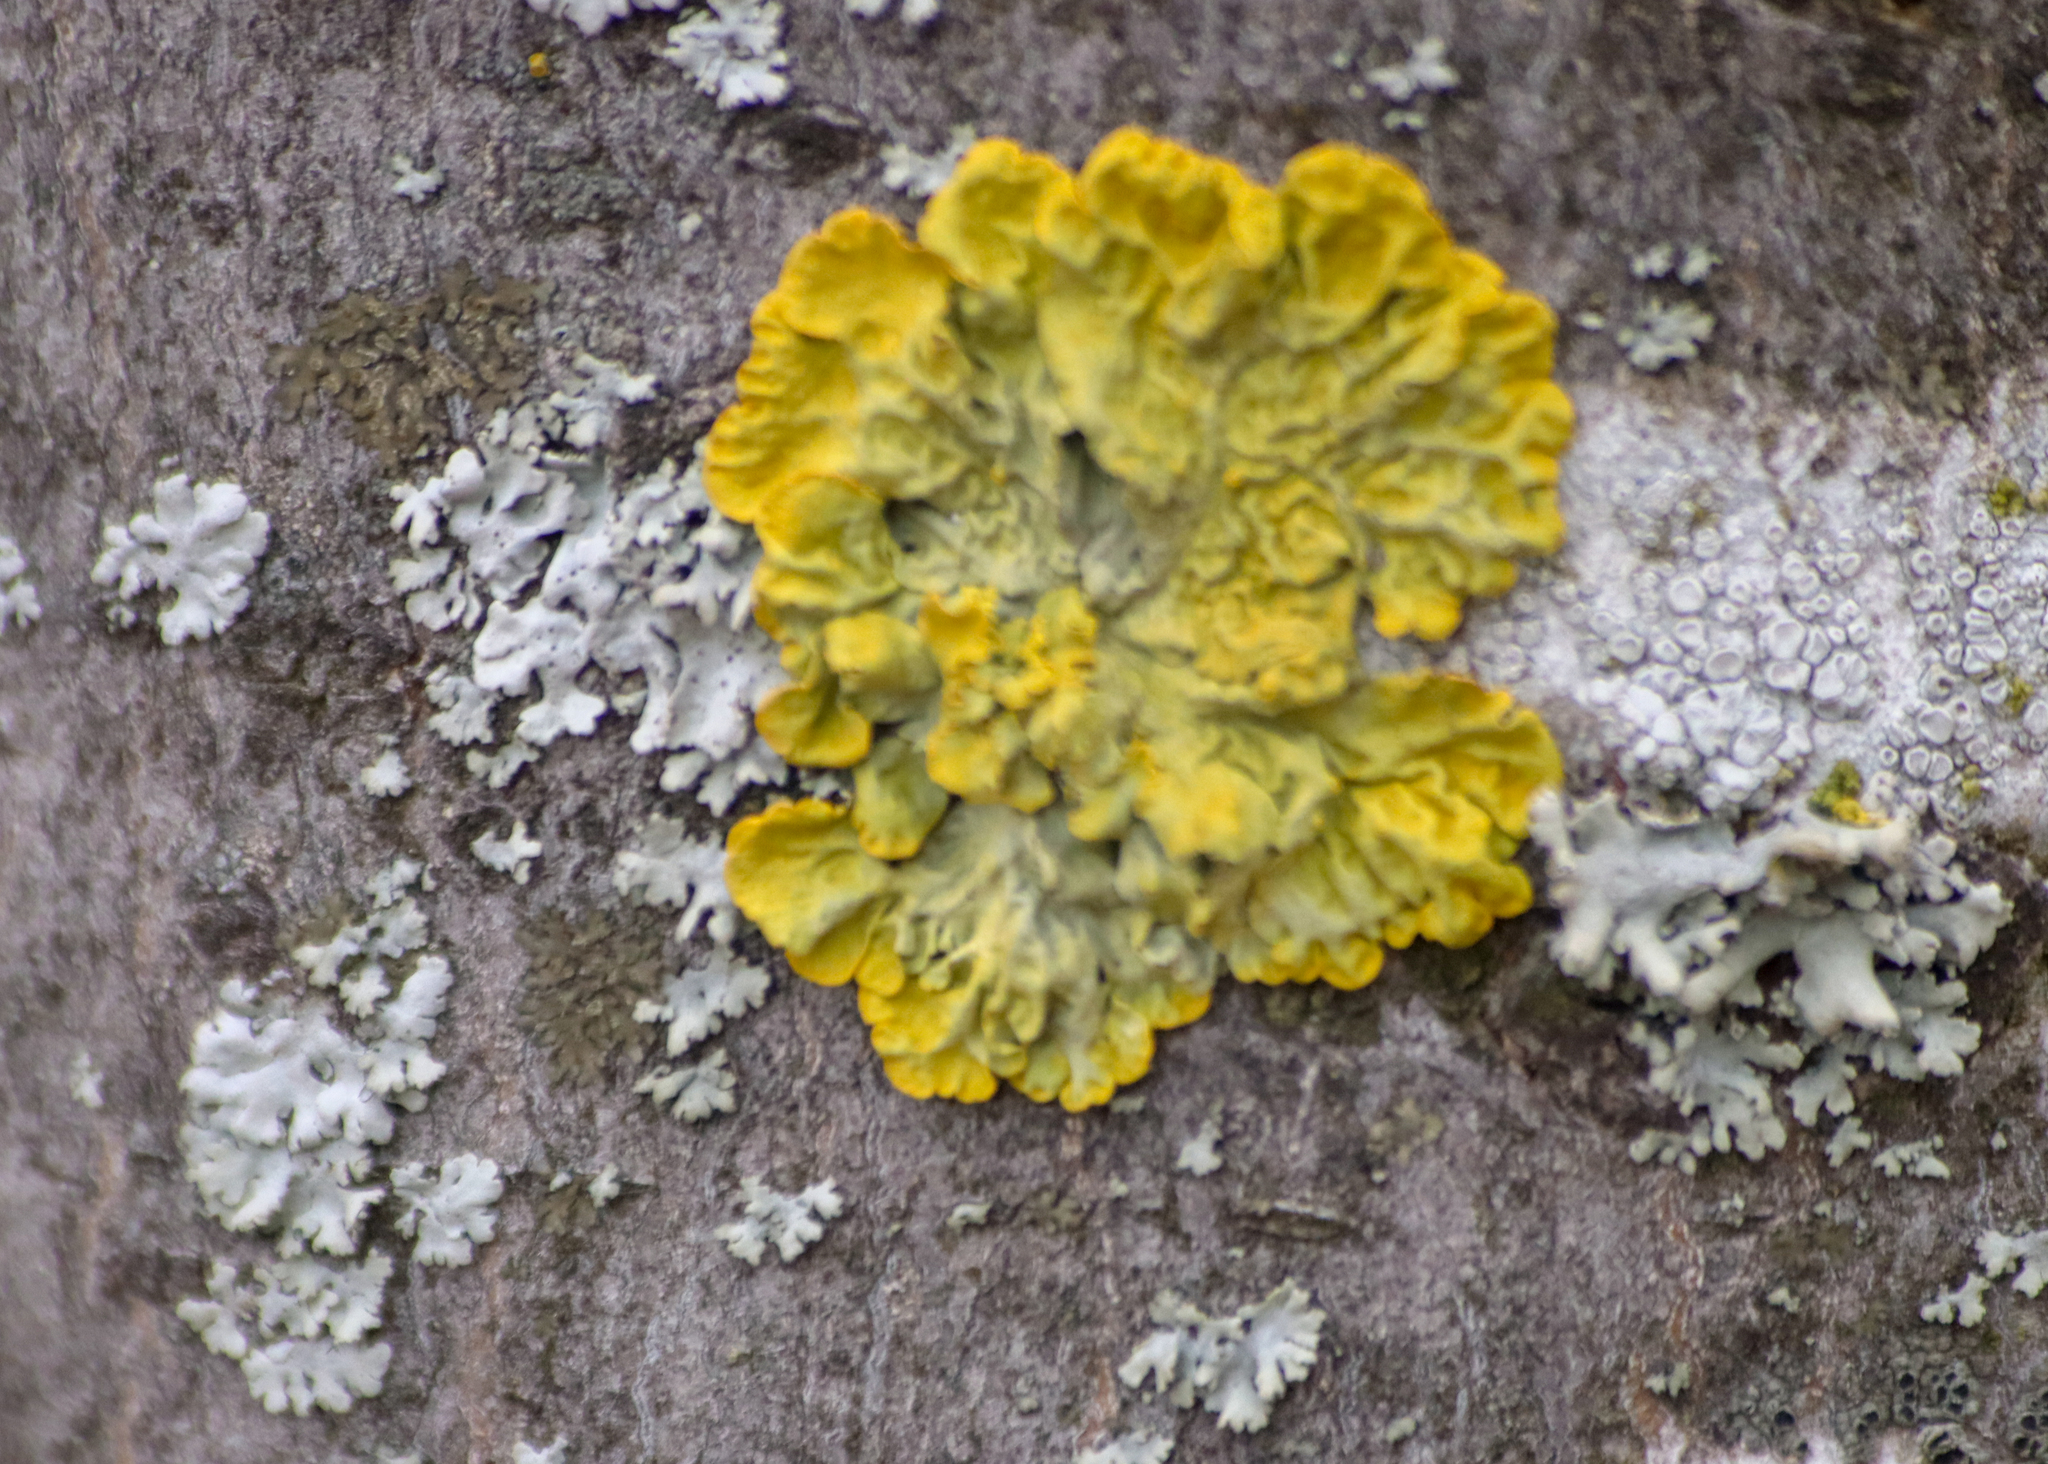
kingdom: Fungi
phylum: Ascomycota
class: Lecanoromycetes
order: Teloschistales
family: Teloschistaceae
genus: Xanthoria
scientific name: Xanthoria parietina
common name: Common orange lichen
